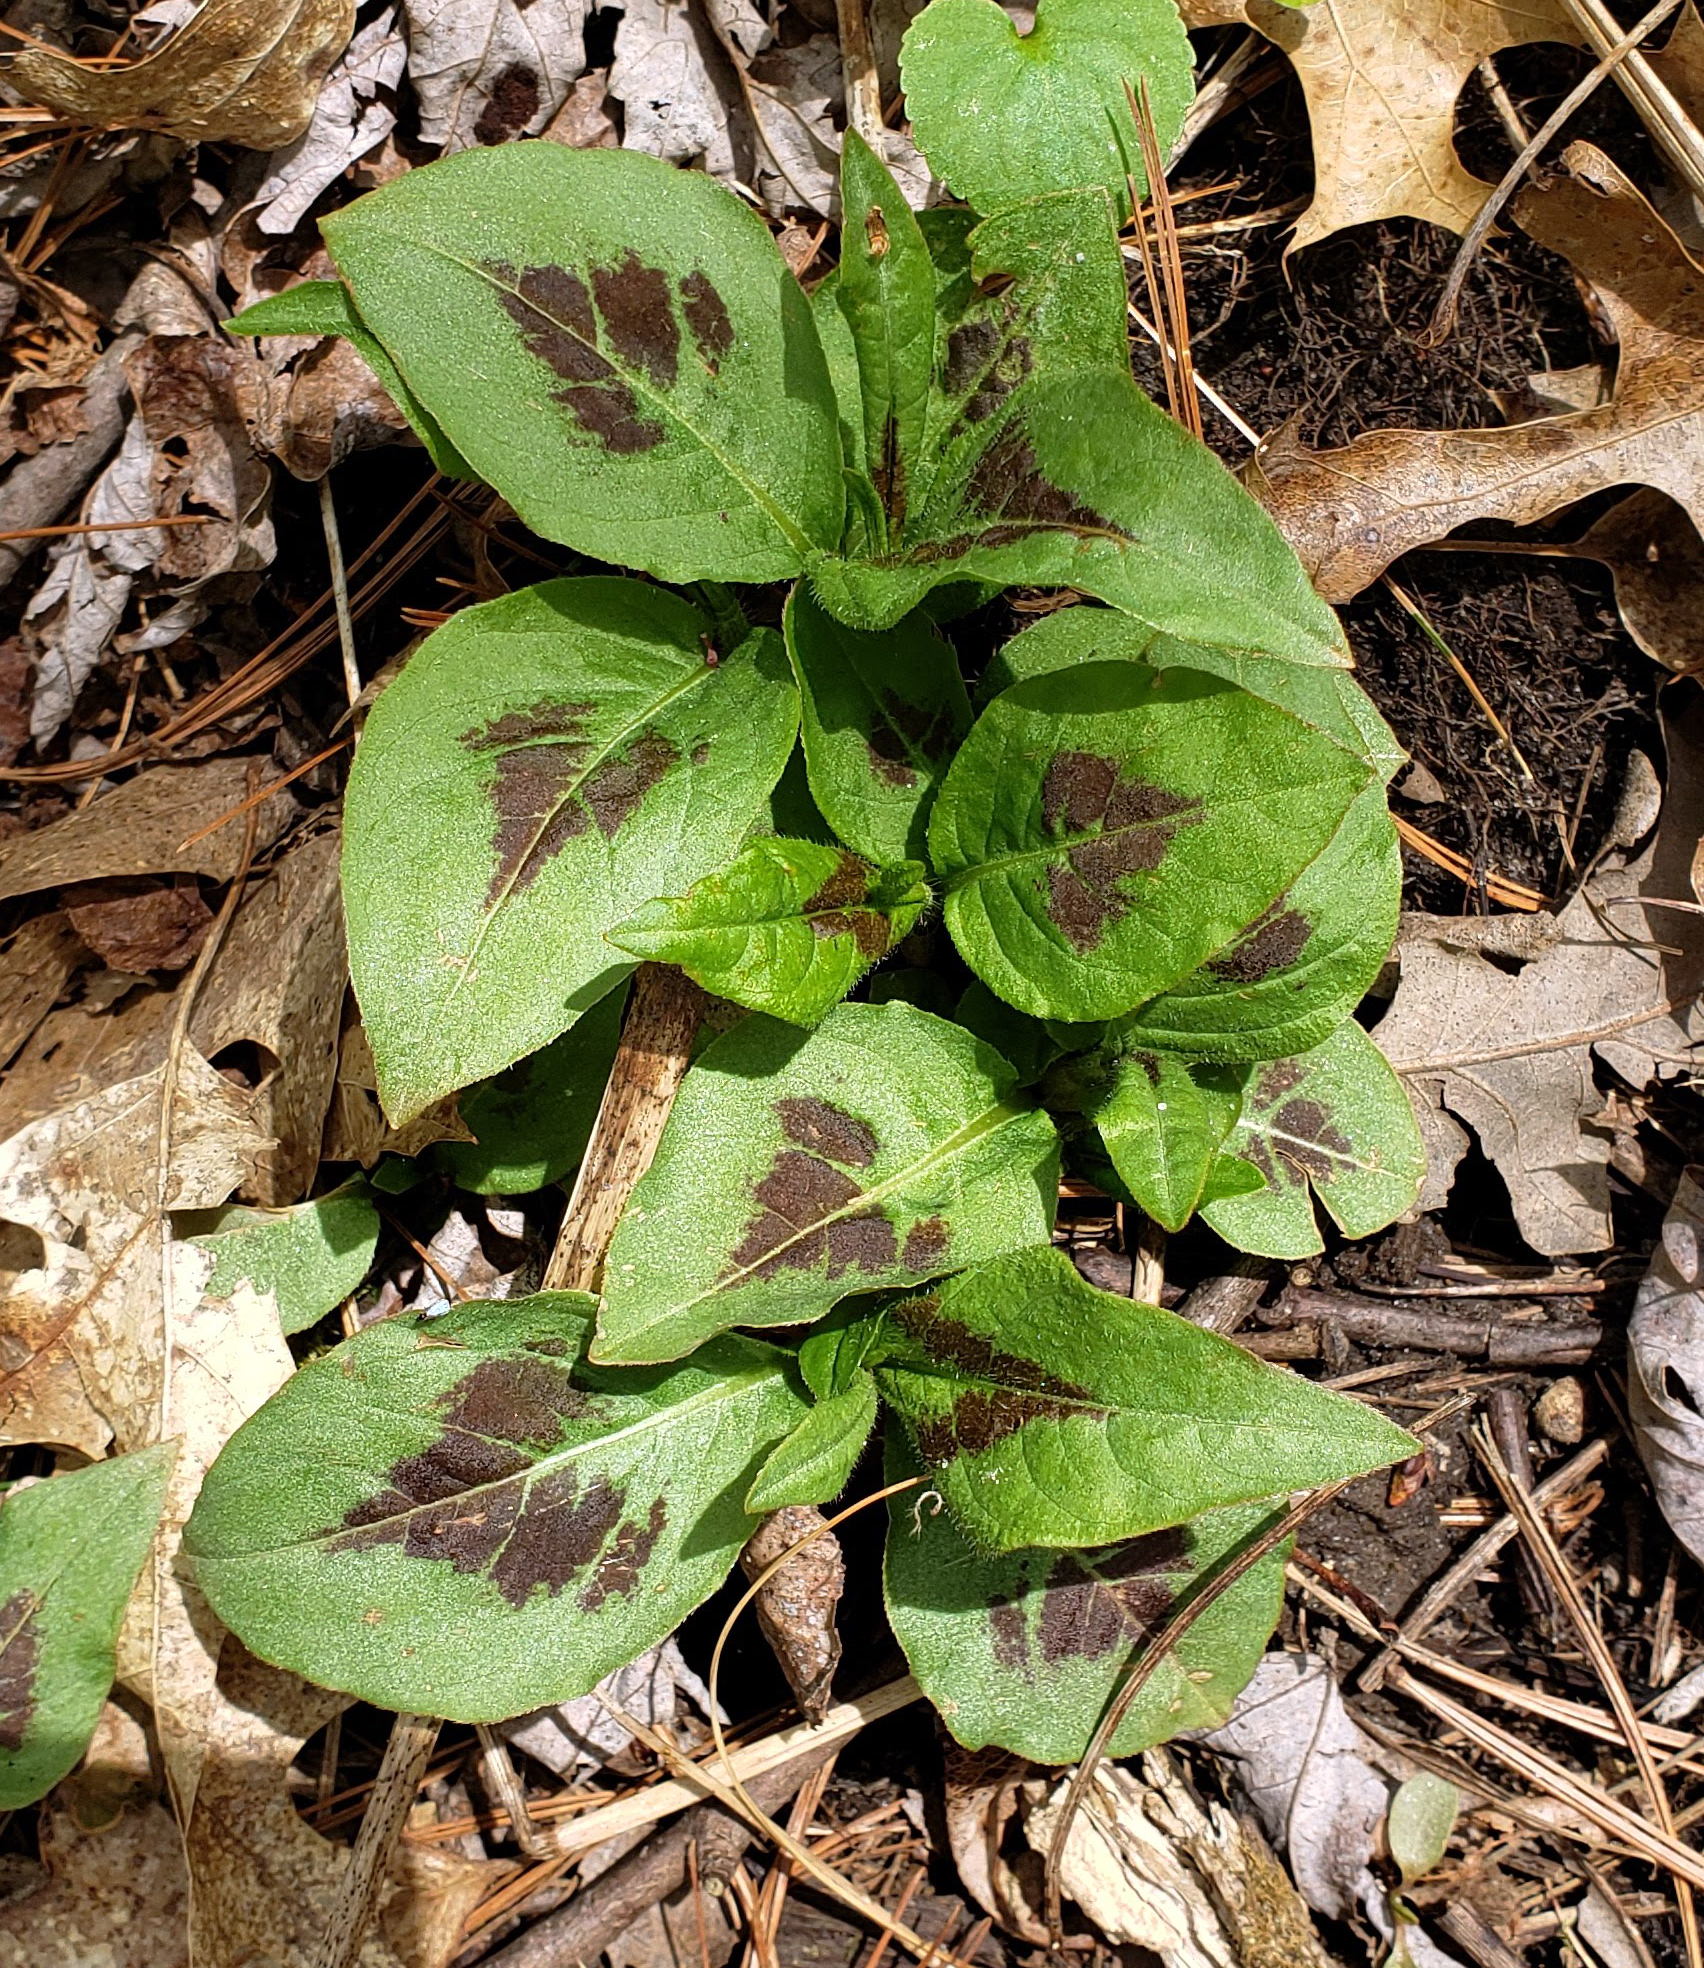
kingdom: Plantae
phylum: Tracheophyta
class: Magnoliopsida
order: Caryophyllales
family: Polygonaceae
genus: Persicaria
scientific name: Persicaria virginiana
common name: Jumpseed
